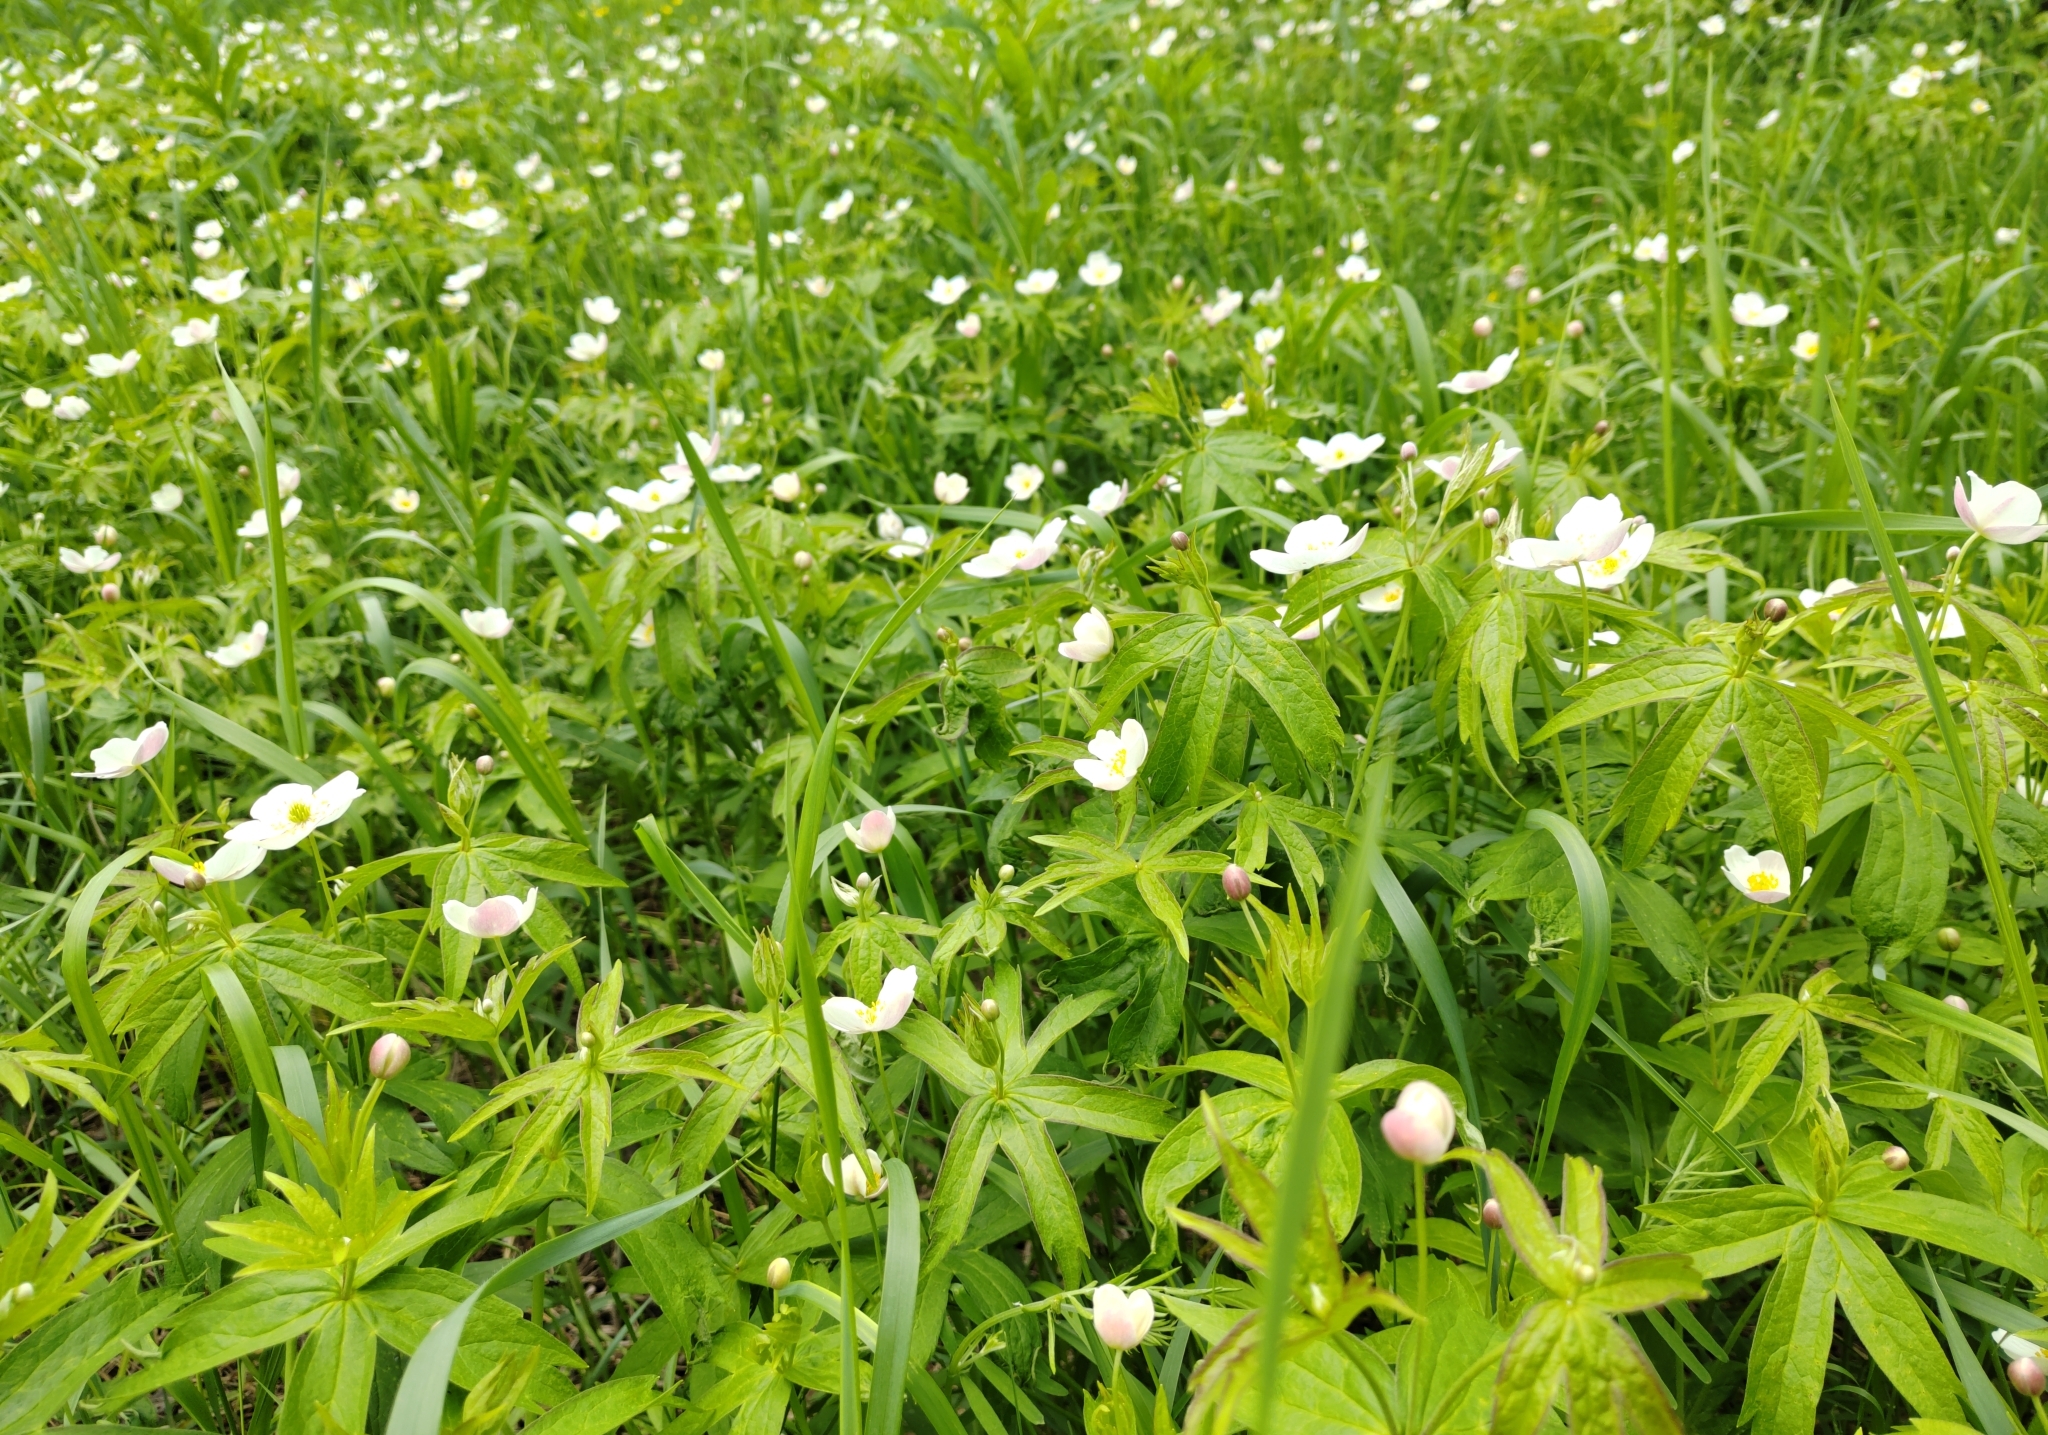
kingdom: Plantae
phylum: Tracheophyta
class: Magnoliopsida
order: Ranunculales
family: Ranunculaceae
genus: Anemonastrum
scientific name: Anemonastrum dichotomum
